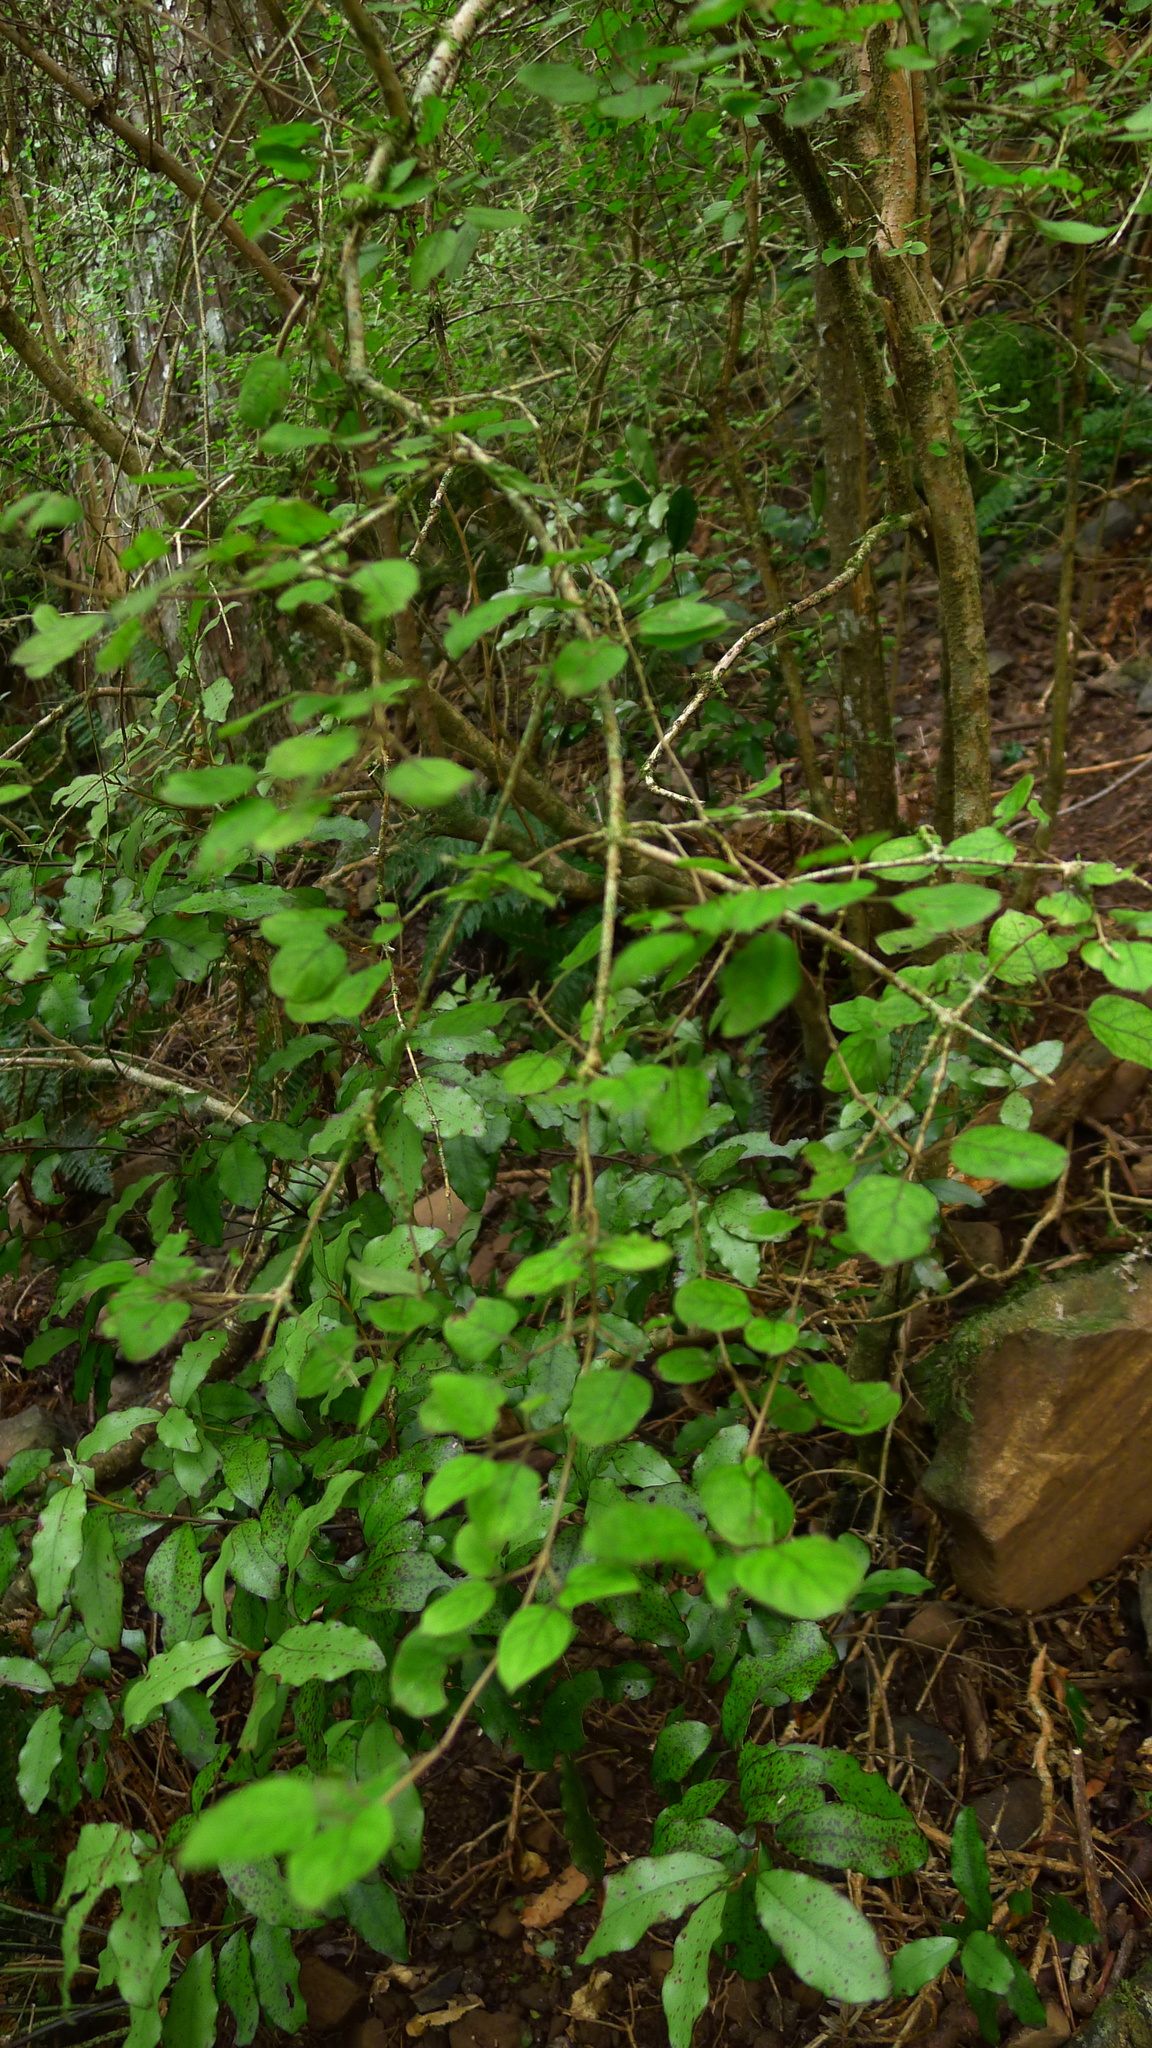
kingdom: Plantae
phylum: Tracheophyta
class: Magnoliopsida
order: Gentianales
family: Rubiaceae
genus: Coprosma
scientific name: Coprosma rotundifolia
